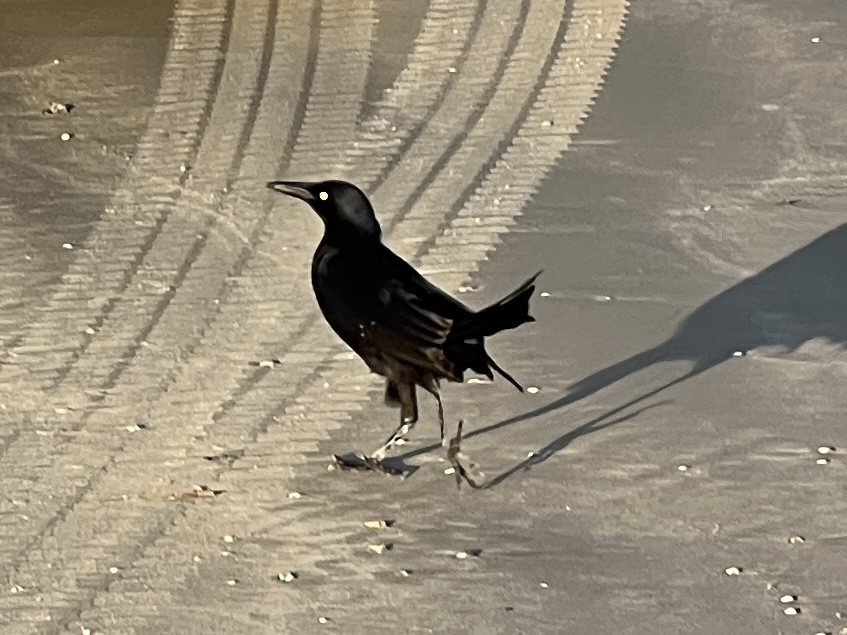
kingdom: Animalia
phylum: Chordata
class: Aves
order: Passeriformes
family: Icteridae
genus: Quiscalus
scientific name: Quiscalus mexicanus
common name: Great-tailed grackle
